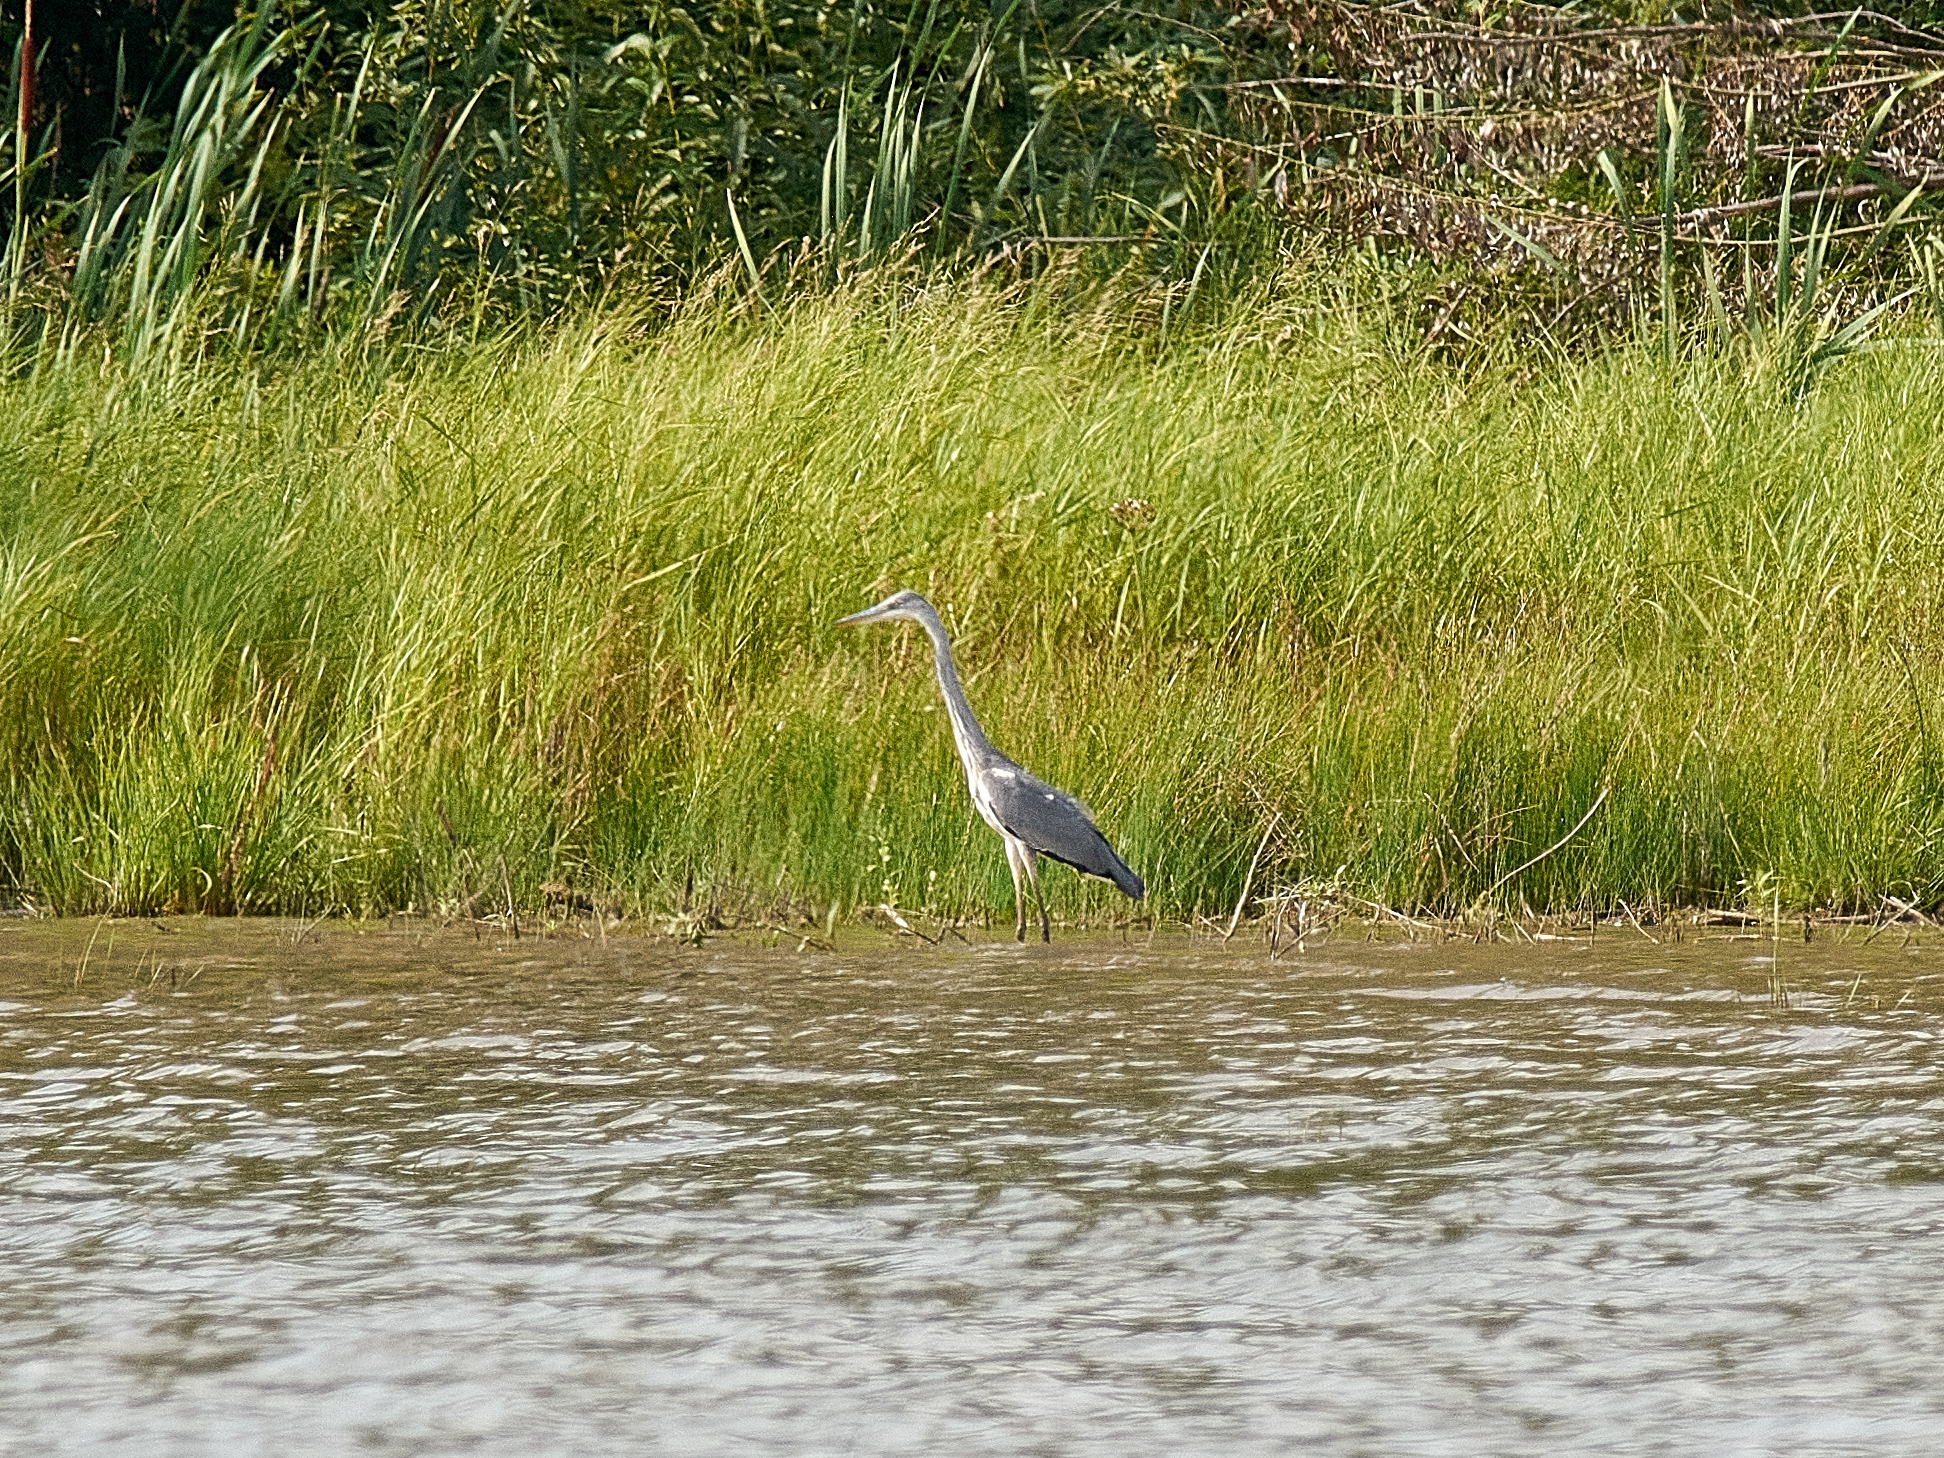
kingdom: Animalia
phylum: Chordata
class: Aves
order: Pelecaniformes
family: Ardeidae
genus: Ardea
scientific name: Ardea cinerea
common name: Grey heron
